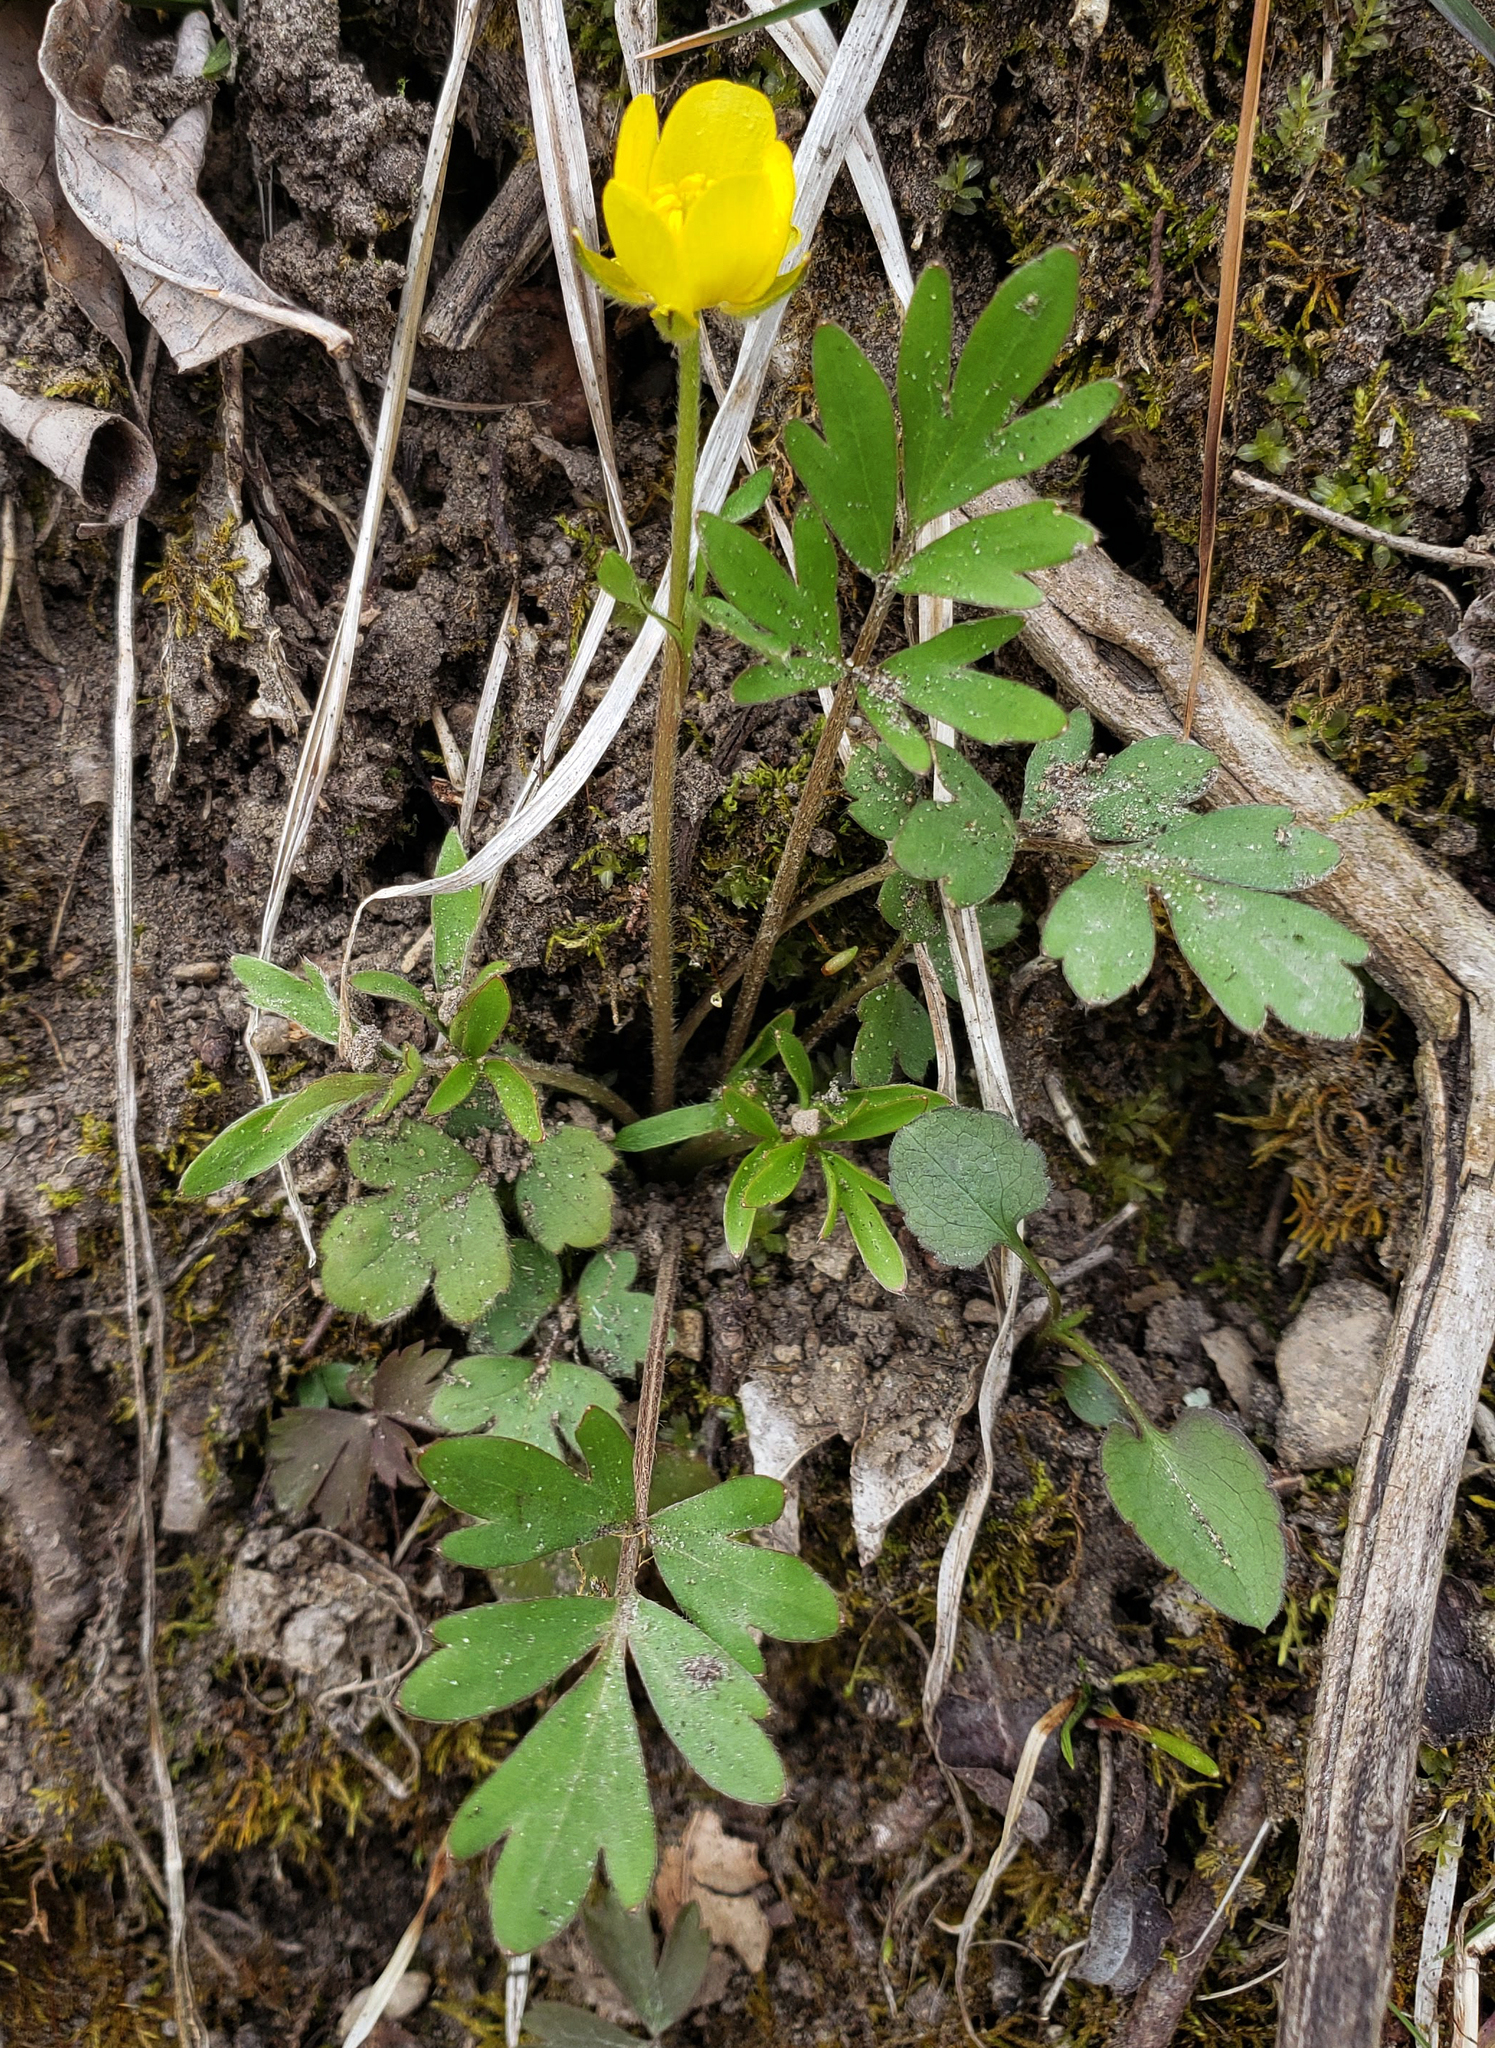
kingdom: Plantae
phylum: Tracheophyta
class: Magnoliopsida
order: Ranunculales
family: Ranunculaceae
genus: Ranunculus
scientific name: Ranunculus fascicularis
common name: Early buttercup
